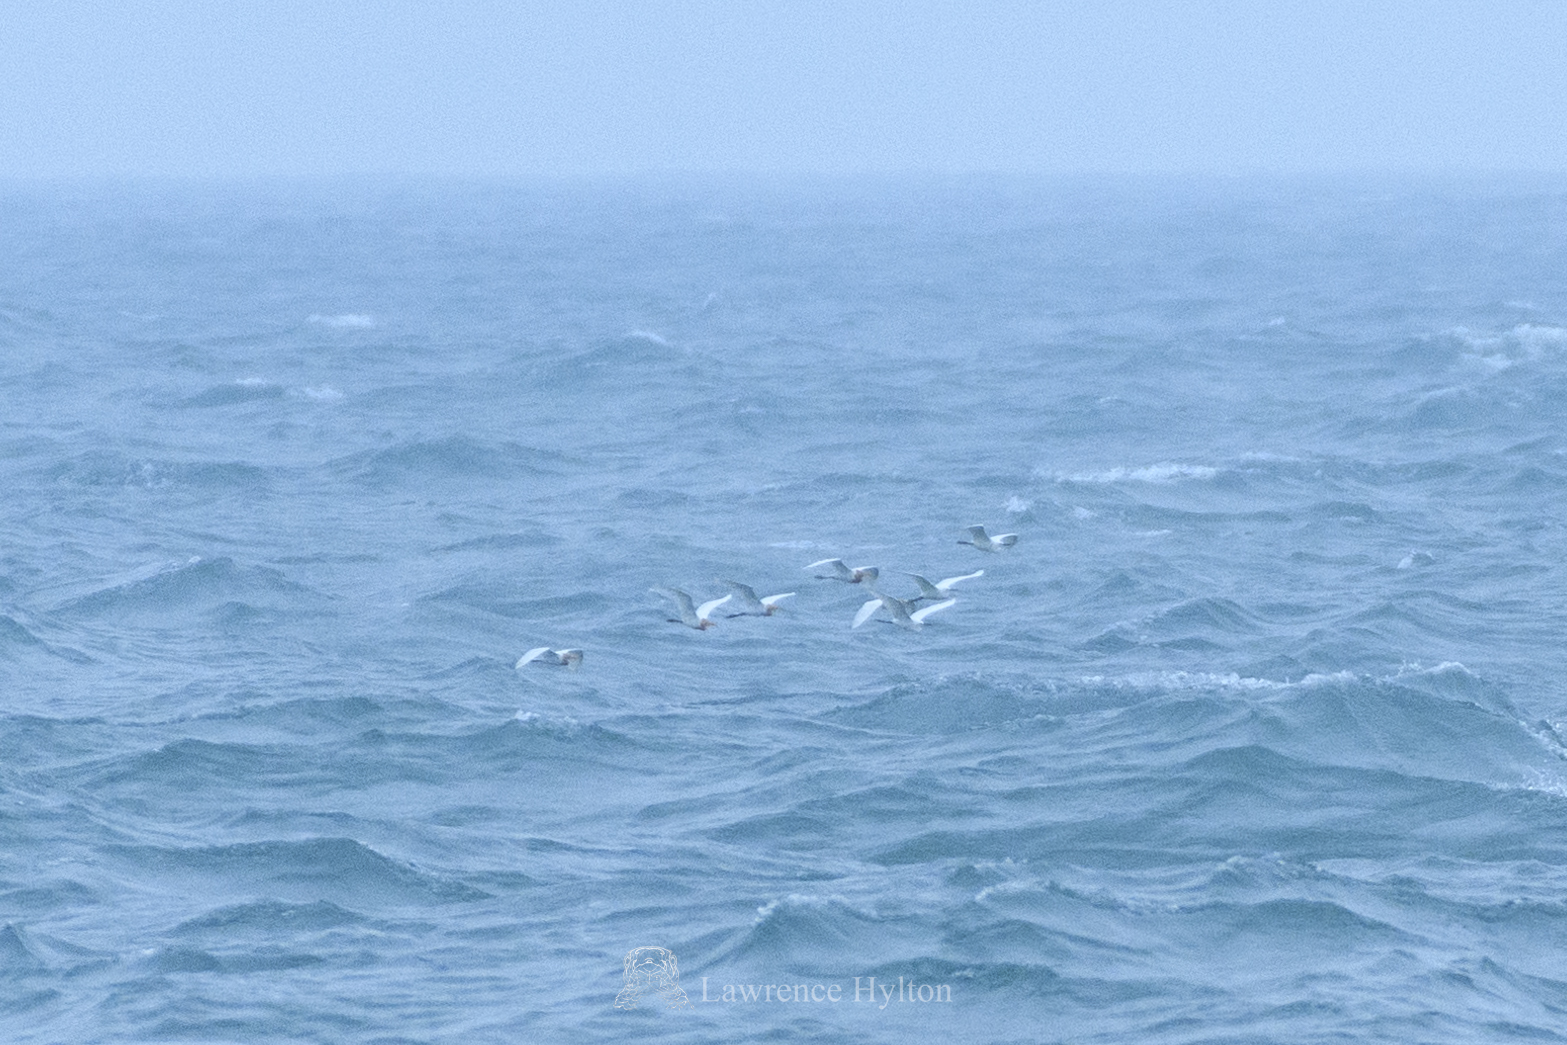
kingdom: Animalia
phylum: Chordata
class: Aves
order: Pelecaniformes
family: Ardeidae
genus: Bubulcus
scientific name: Bubulcus coromandus
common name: Eastern cattle egret
